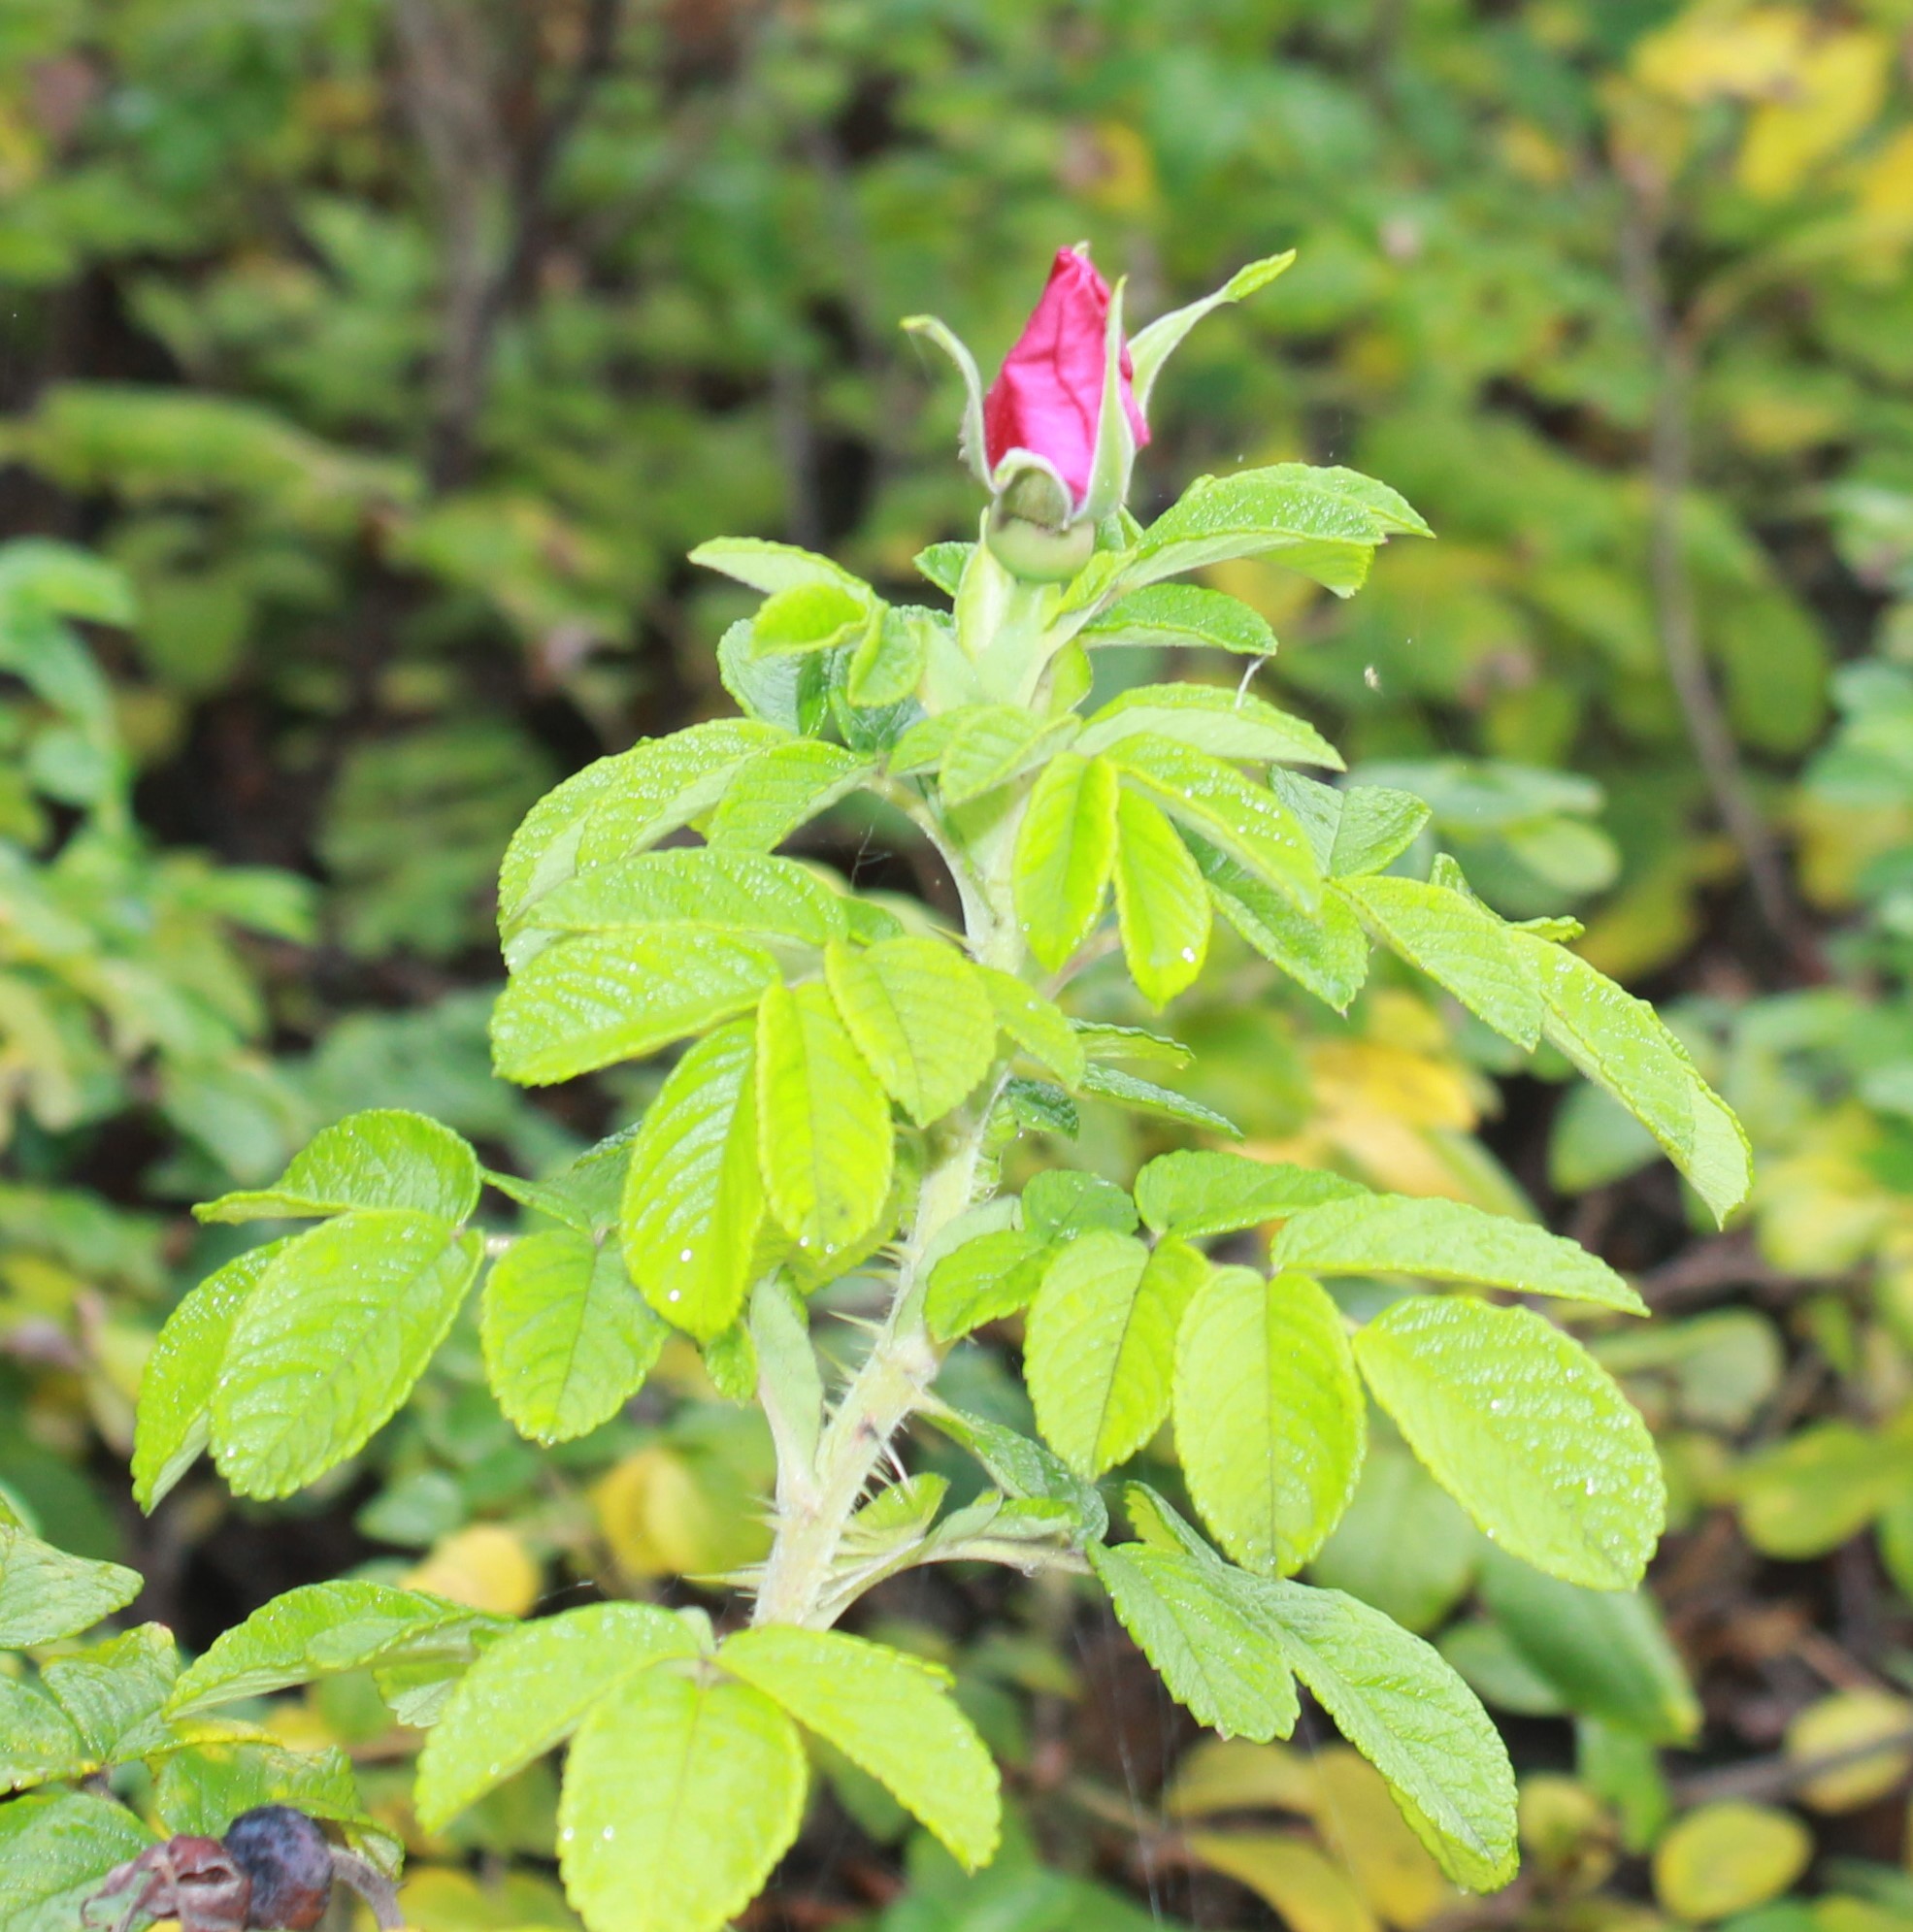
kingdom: Plantae
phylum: Tracheophyta
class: Magnoliopsida
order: Rosales
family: Rosaceae
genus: Rosa
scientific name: Rosa rugosa
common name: Japanese rose
